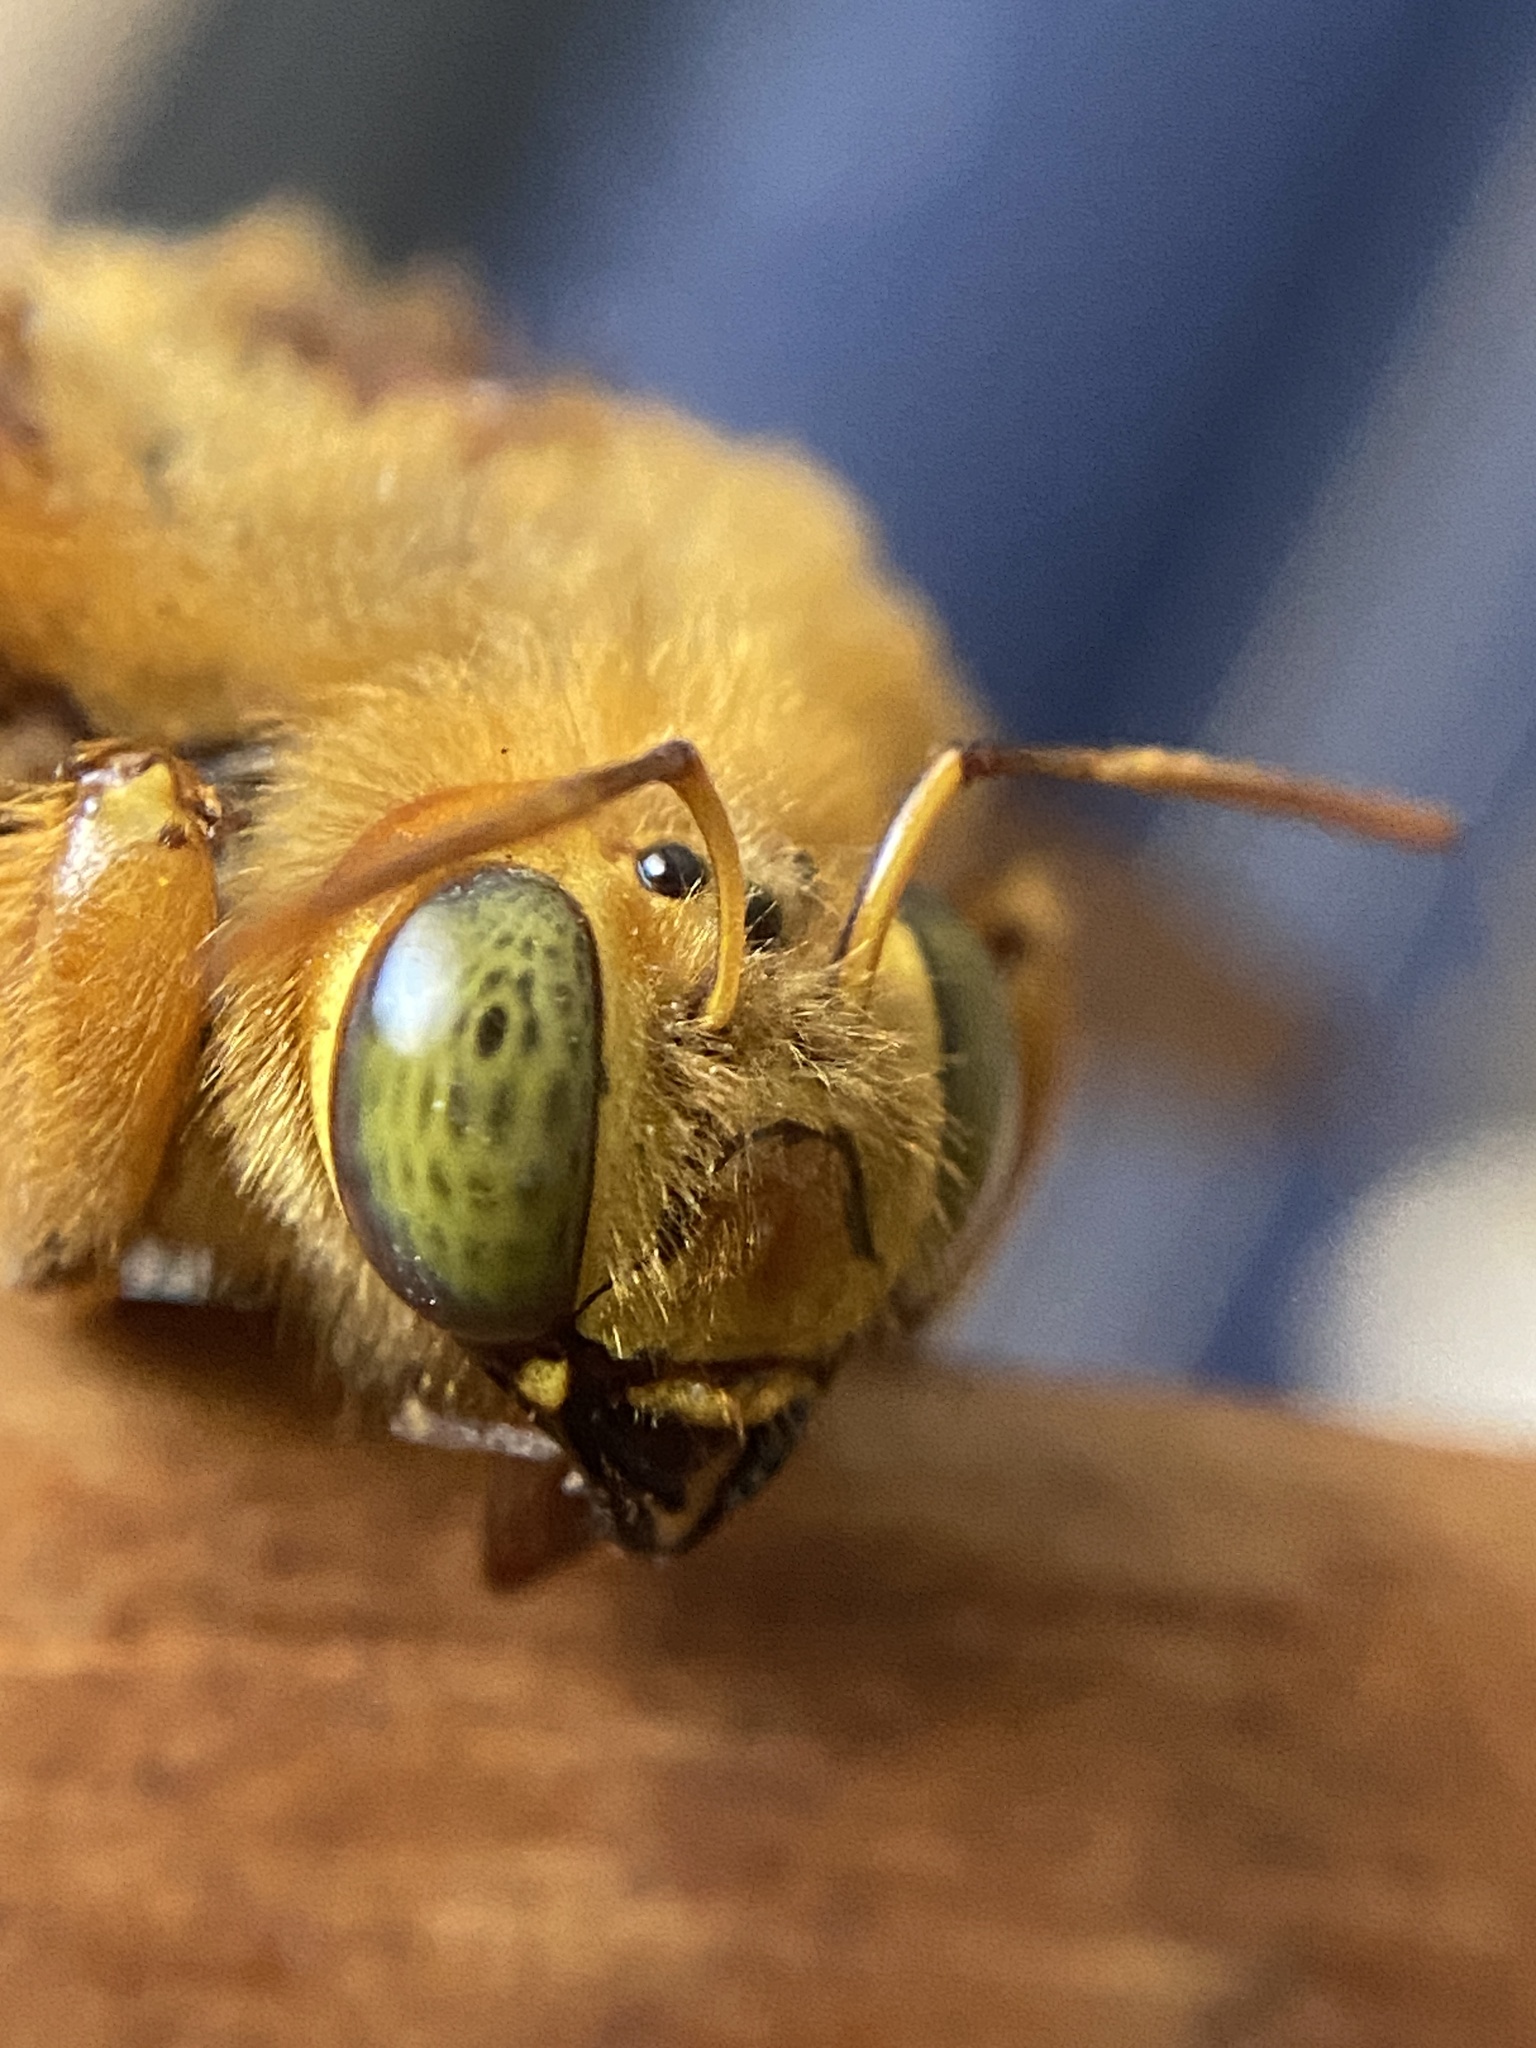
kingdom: Animalia
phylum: Arthropoda
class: Insecta
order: Hymenoptera
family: Apidae
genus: Xylocopa
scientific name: Xylocopa augusti
